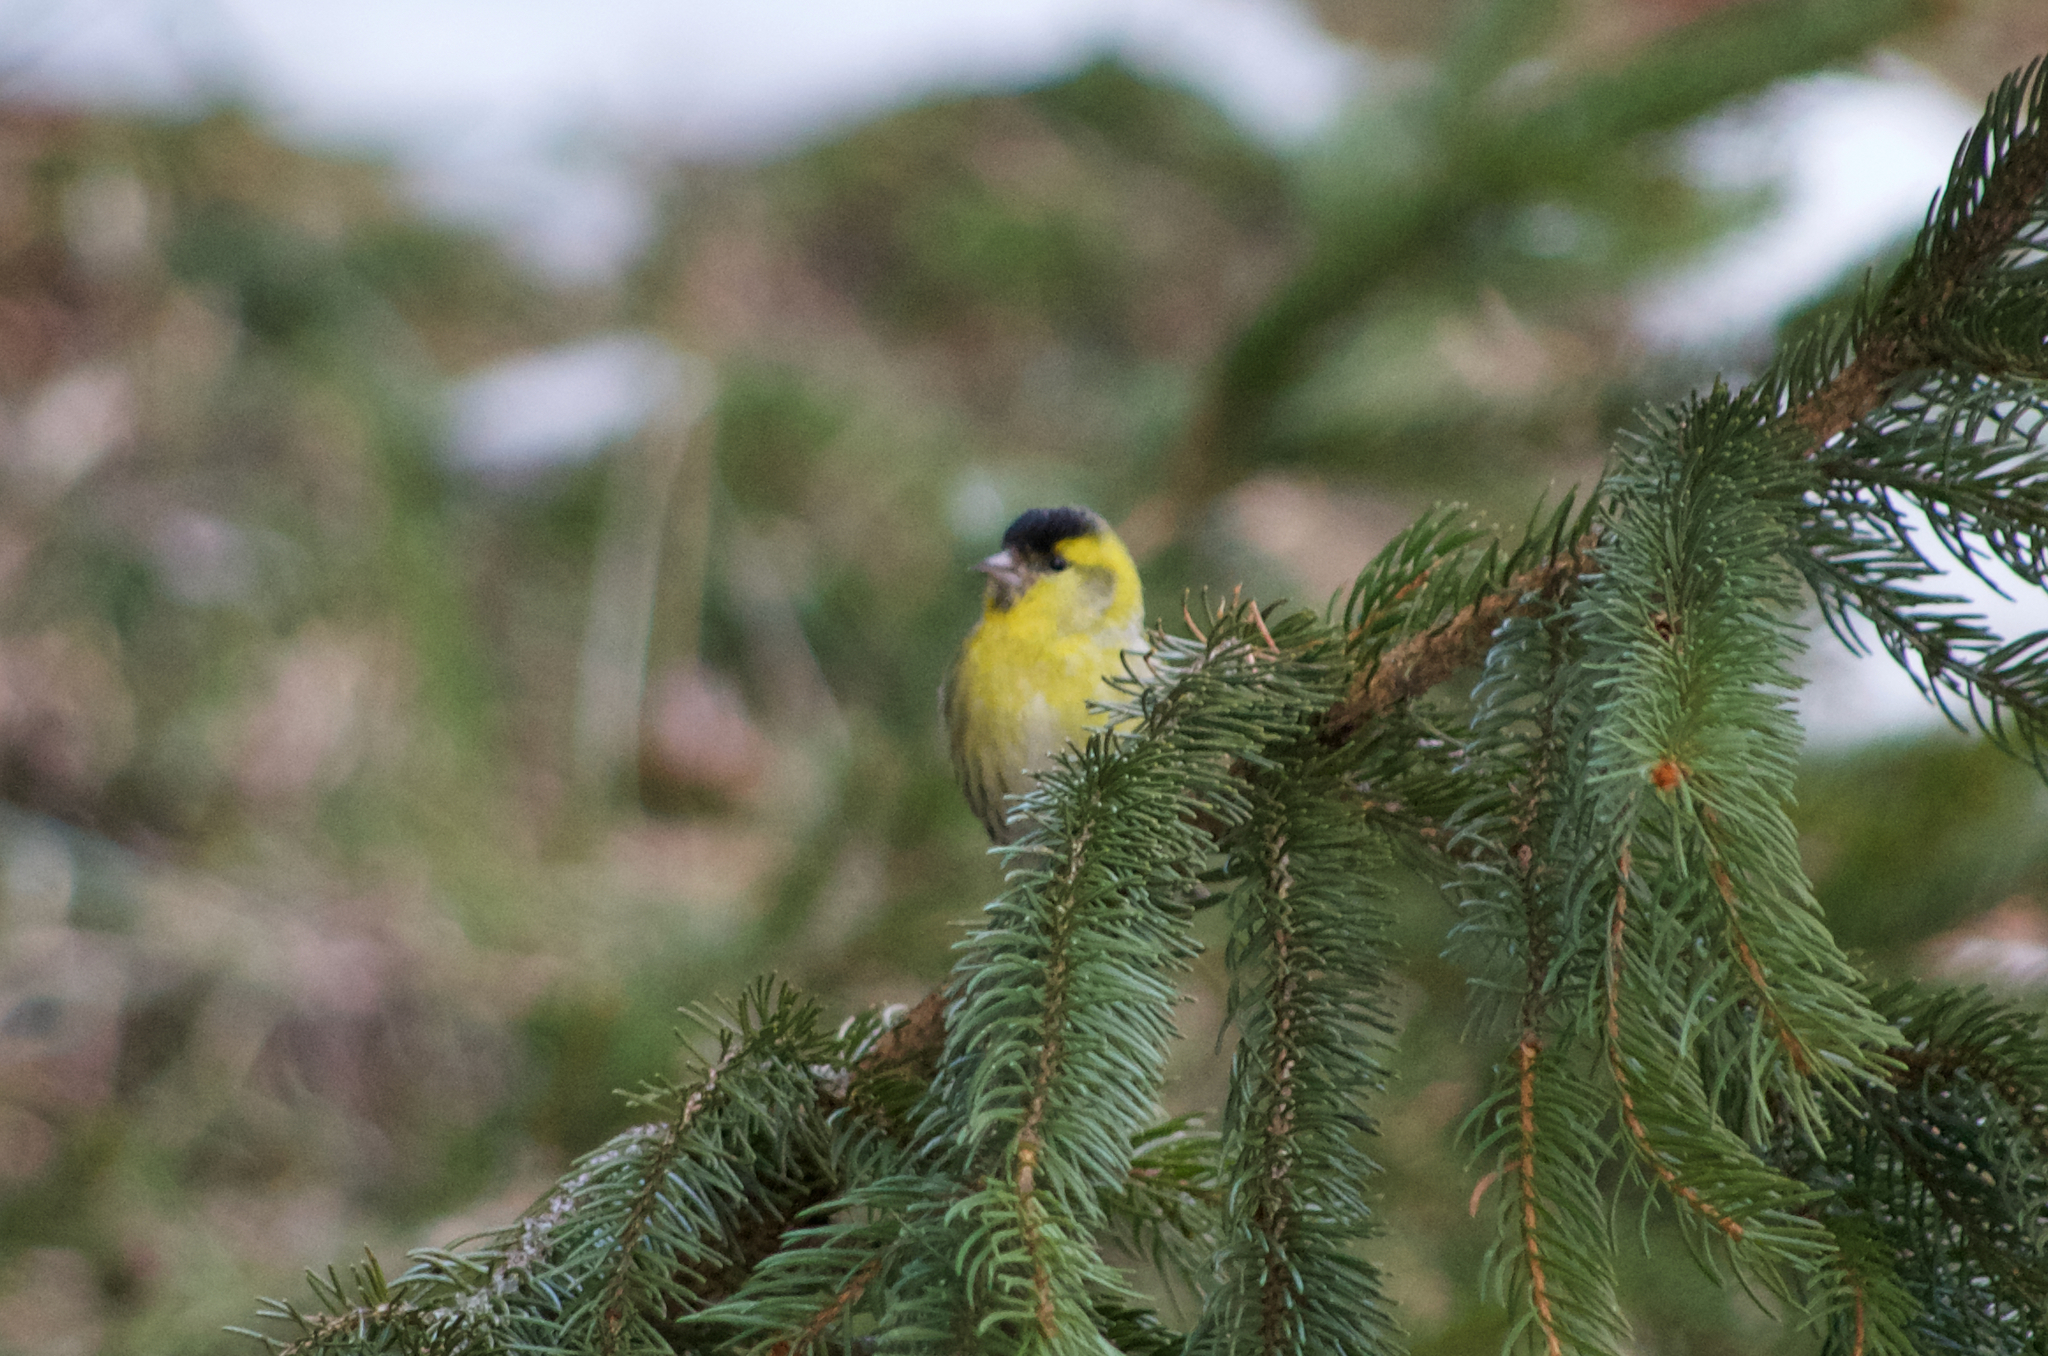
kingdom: Animalia
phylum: Chordata
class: Aves
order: Passeriformes
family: Fringillidae
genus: Spinus
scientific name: Spinus spinus
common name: Eurasian siskin
